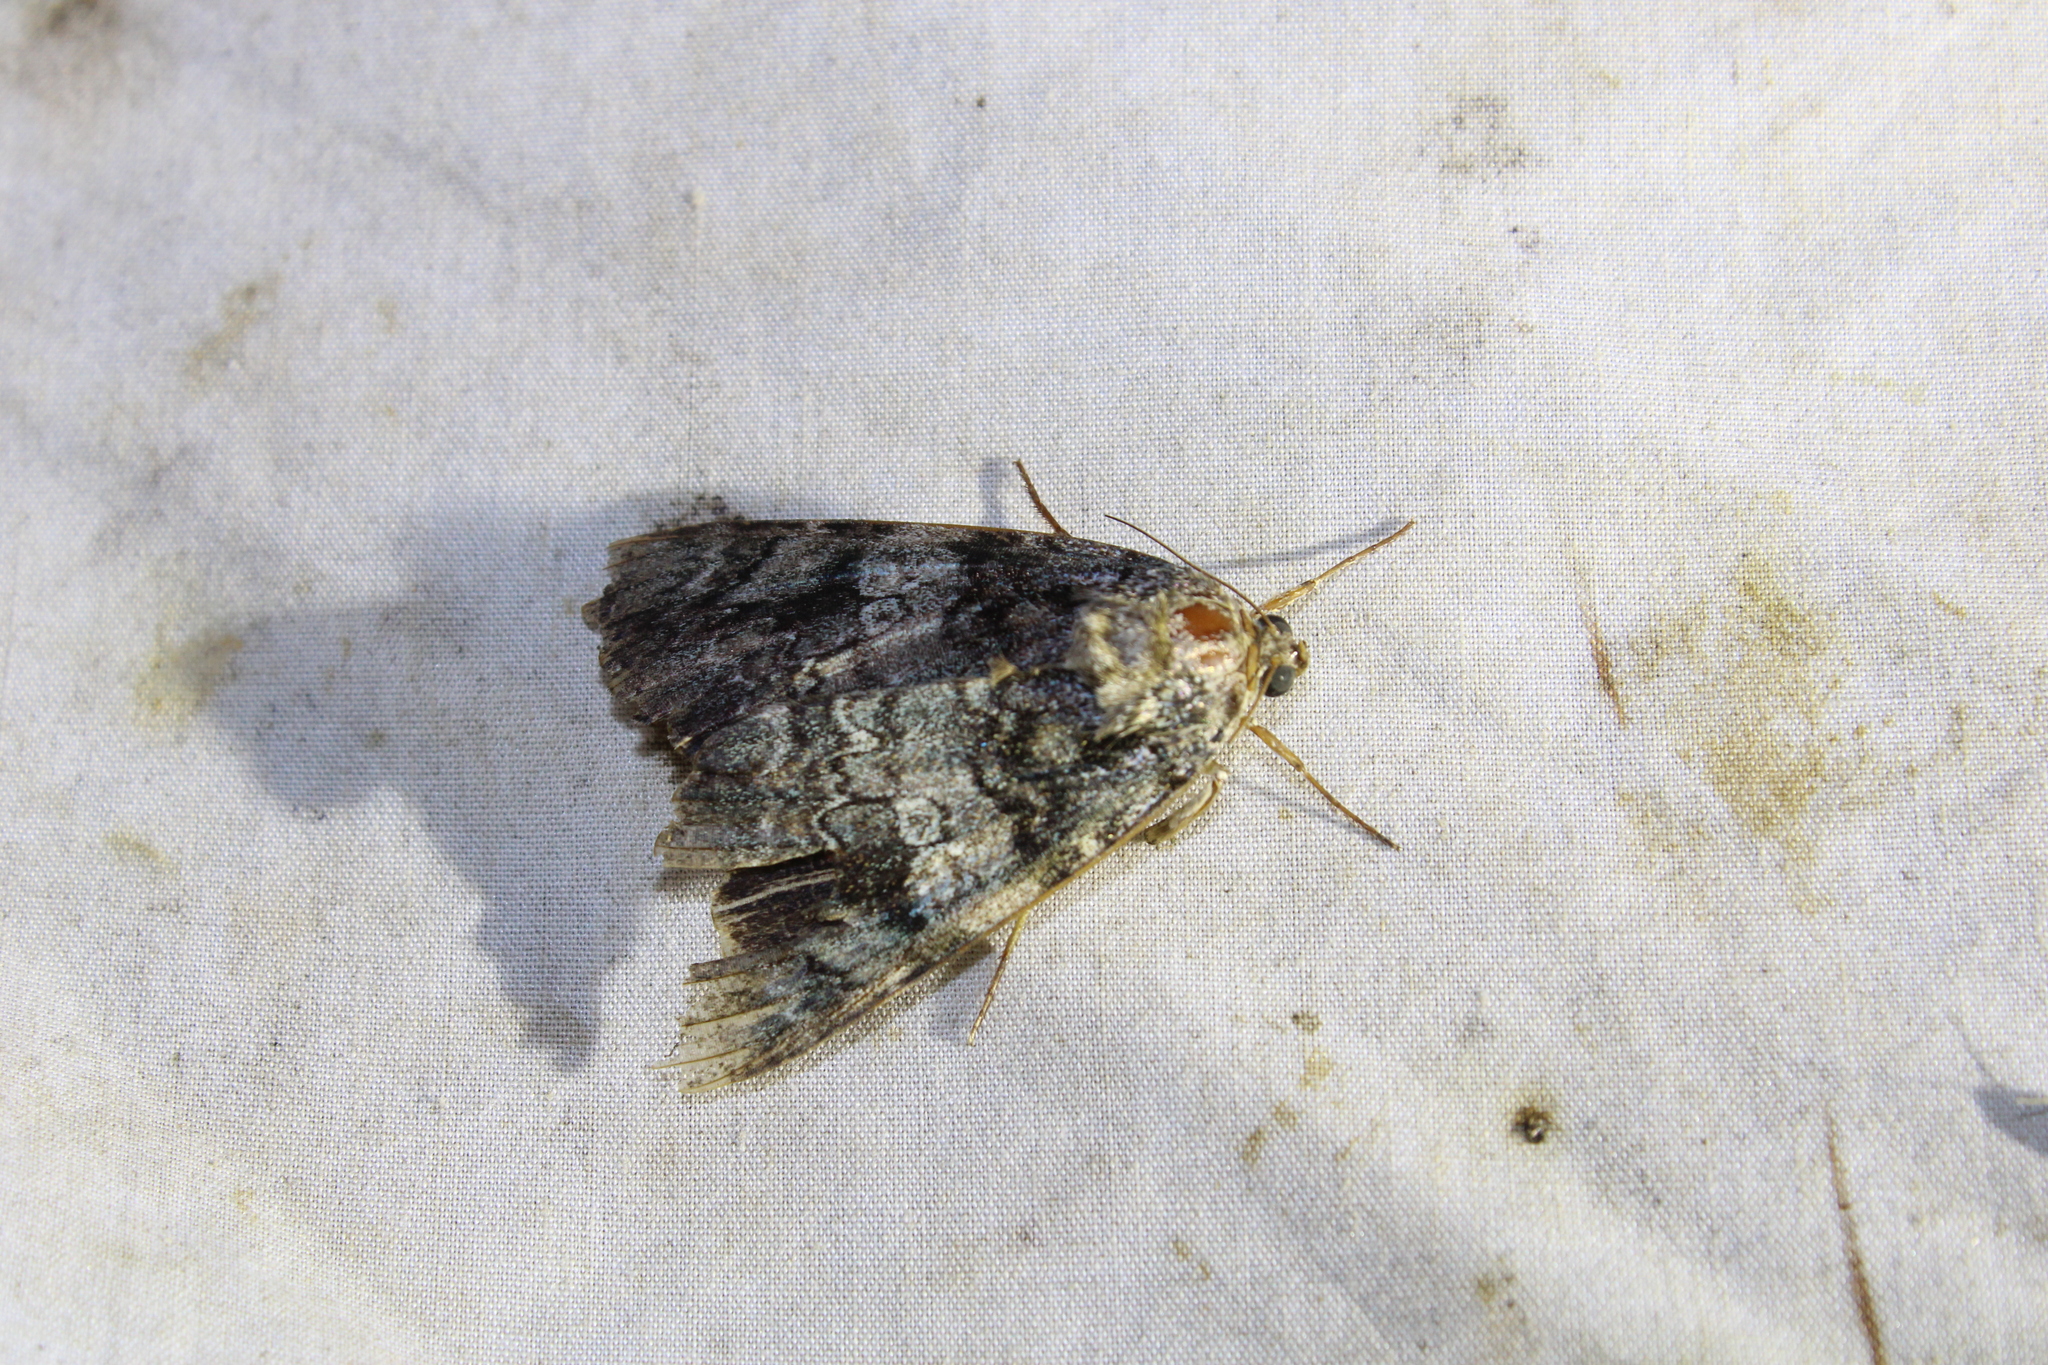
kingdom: Animalia
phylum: Arthropoda
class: Insecta
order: Lepidoptera
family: Erebidae
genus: Catocala
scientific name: Catocala ilia
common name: Ilia underwing
